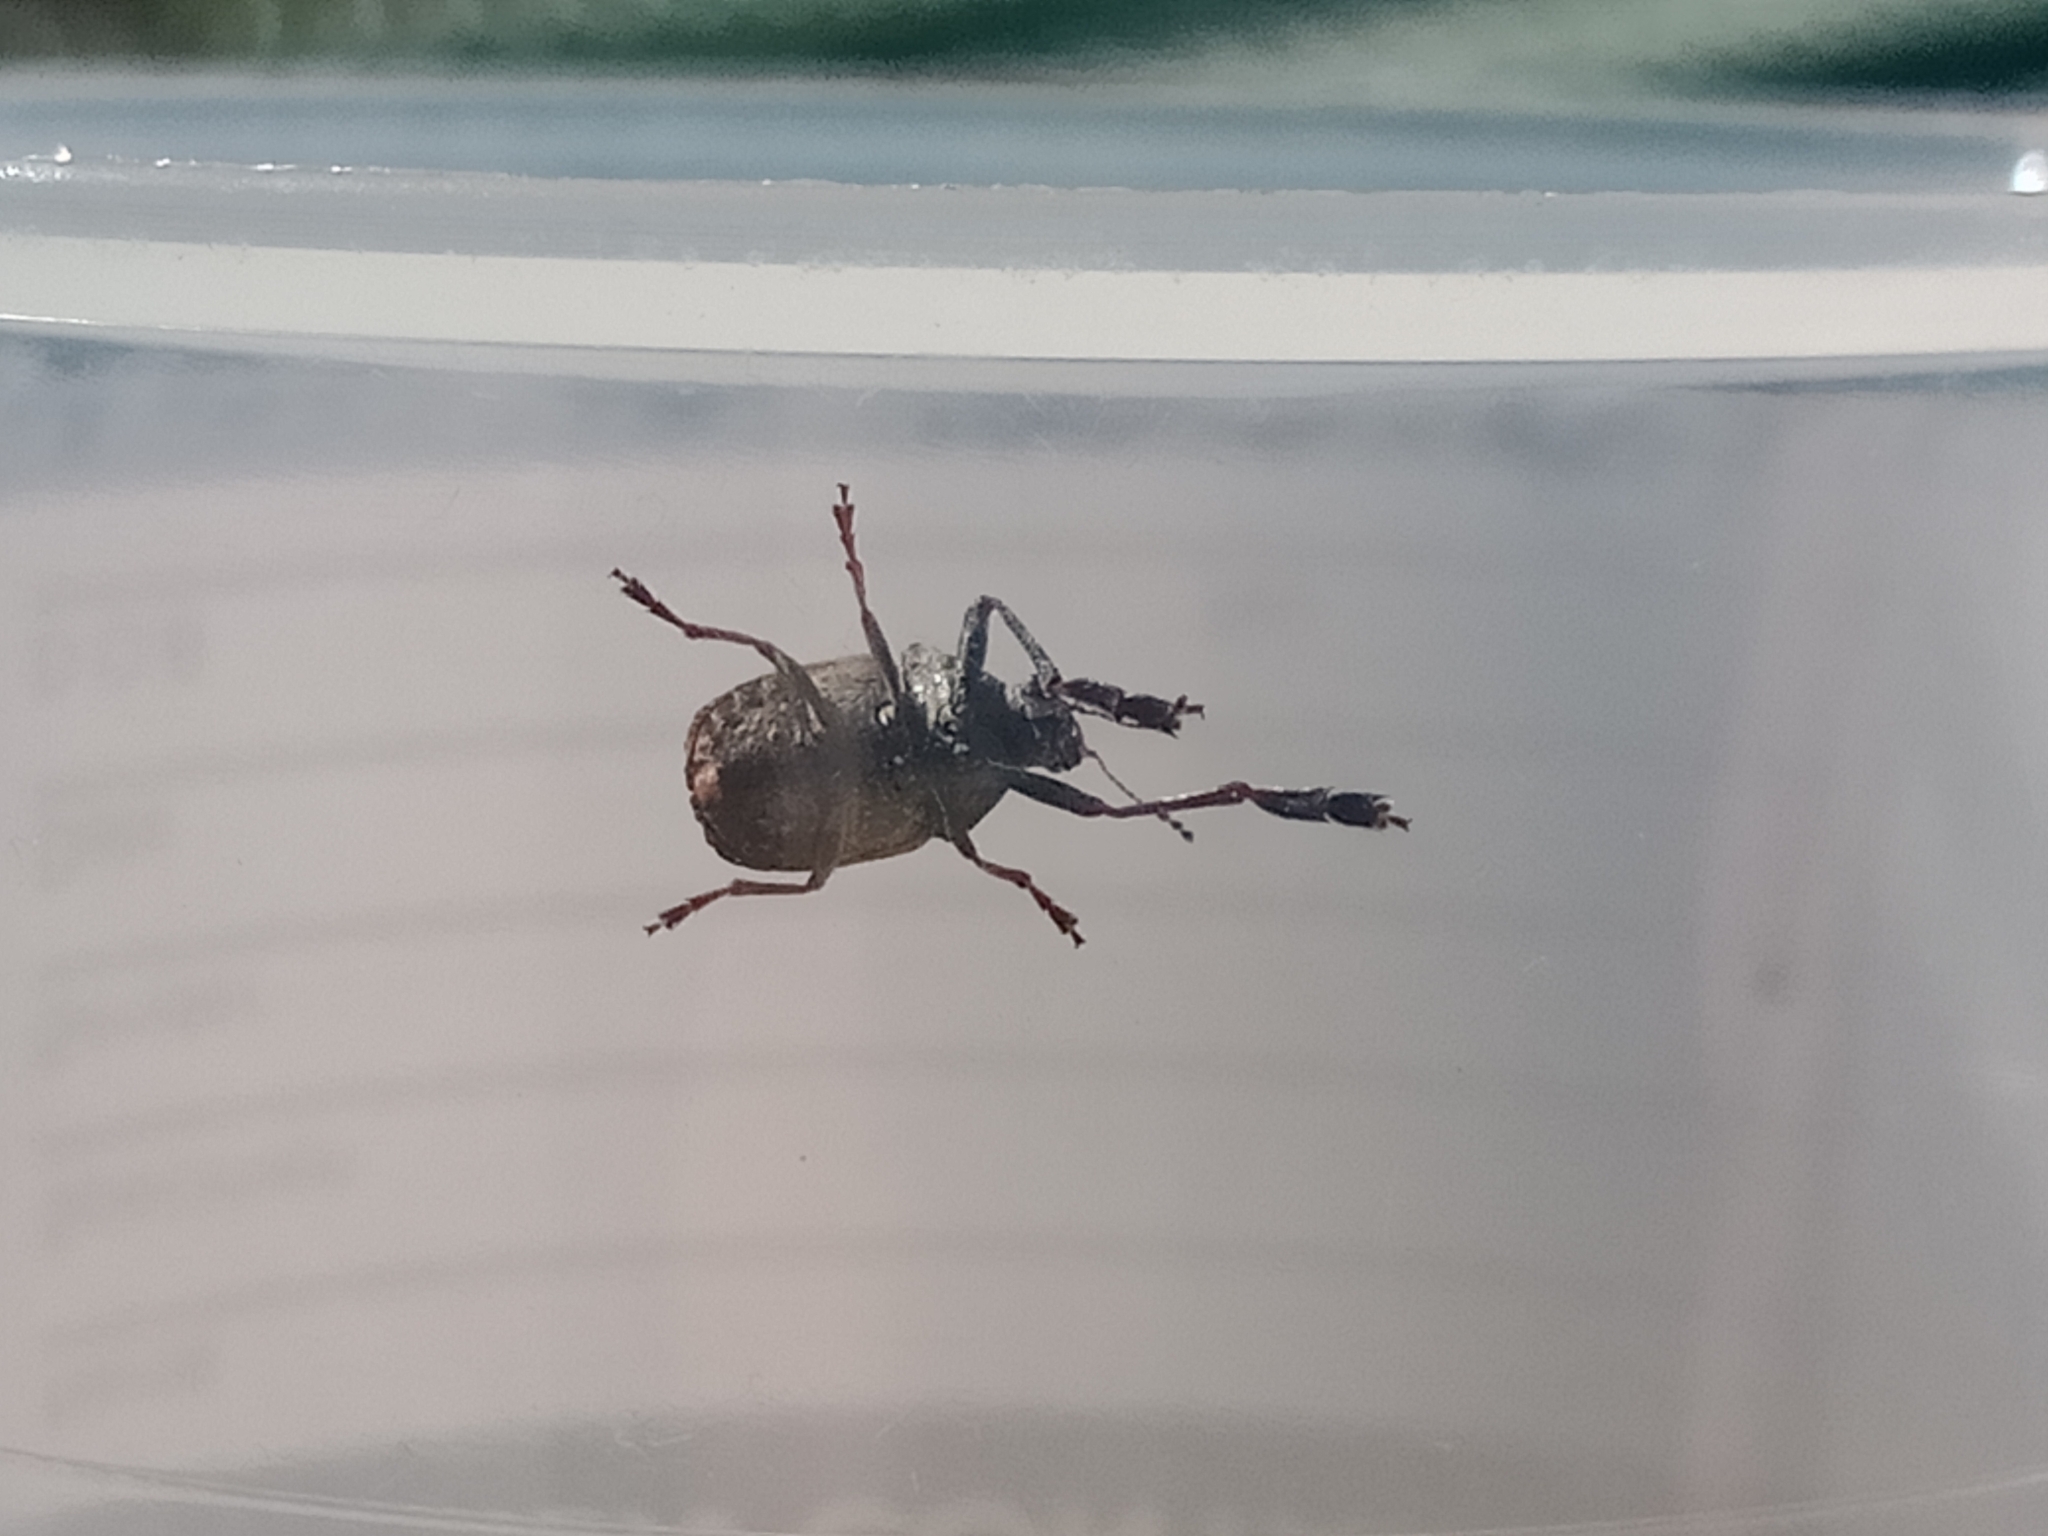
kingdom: Animalia
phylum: Arthropoda
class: Insecta
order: Coleoptera
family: Anthribidae
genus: Araecerus
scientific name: Araecerus
